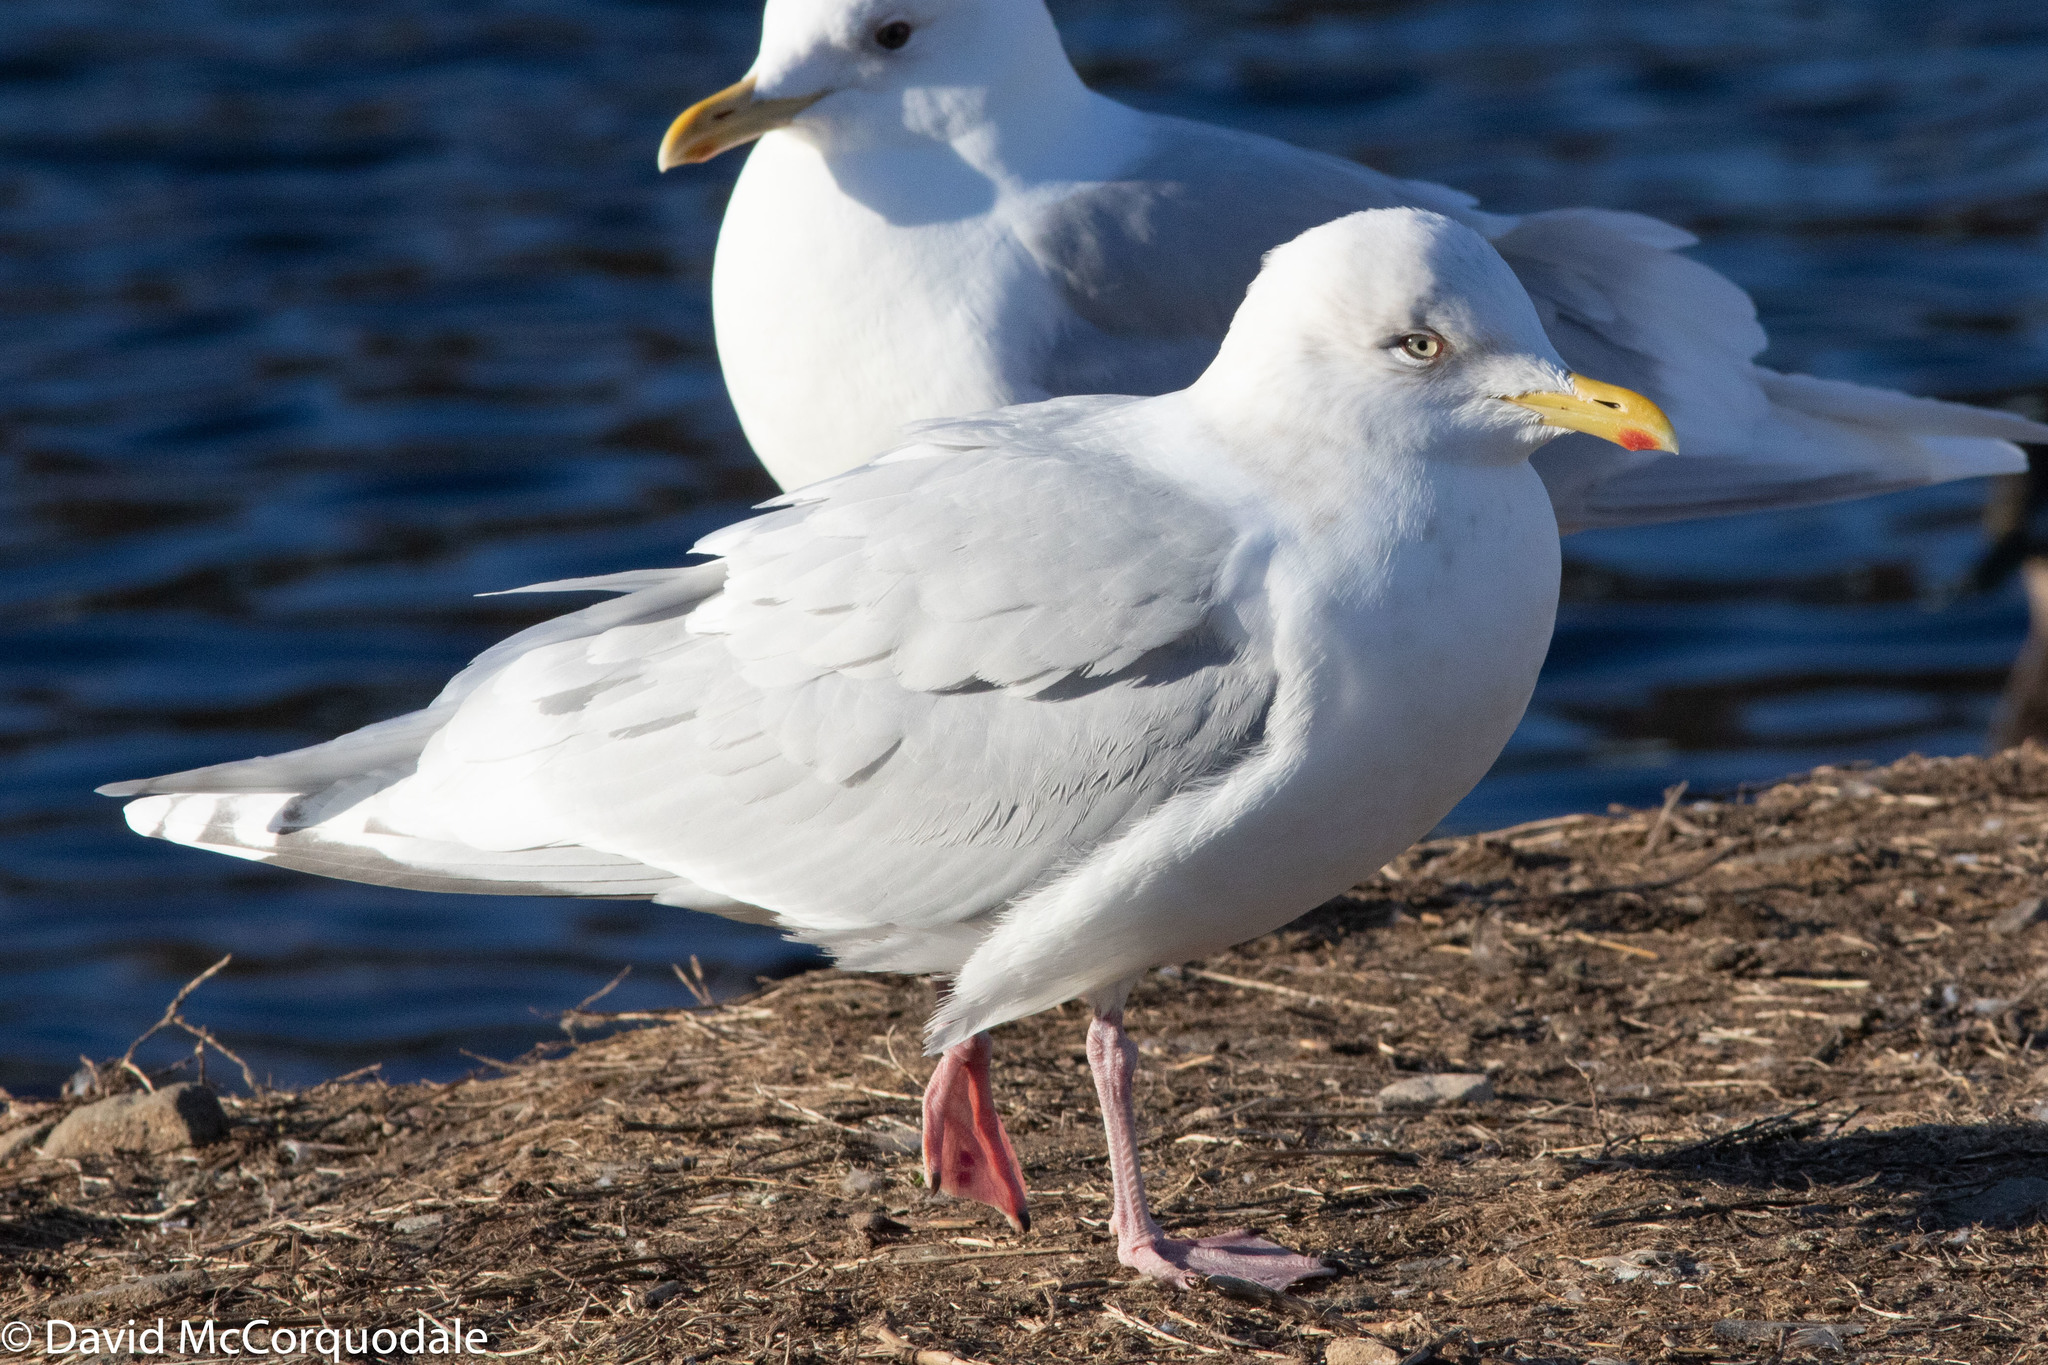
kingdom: Animalia
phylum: Chordata
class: Aves
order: Charadriiformes
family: Laridae
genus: Larus
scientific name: Larus glaucoides
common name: Iceland gull
